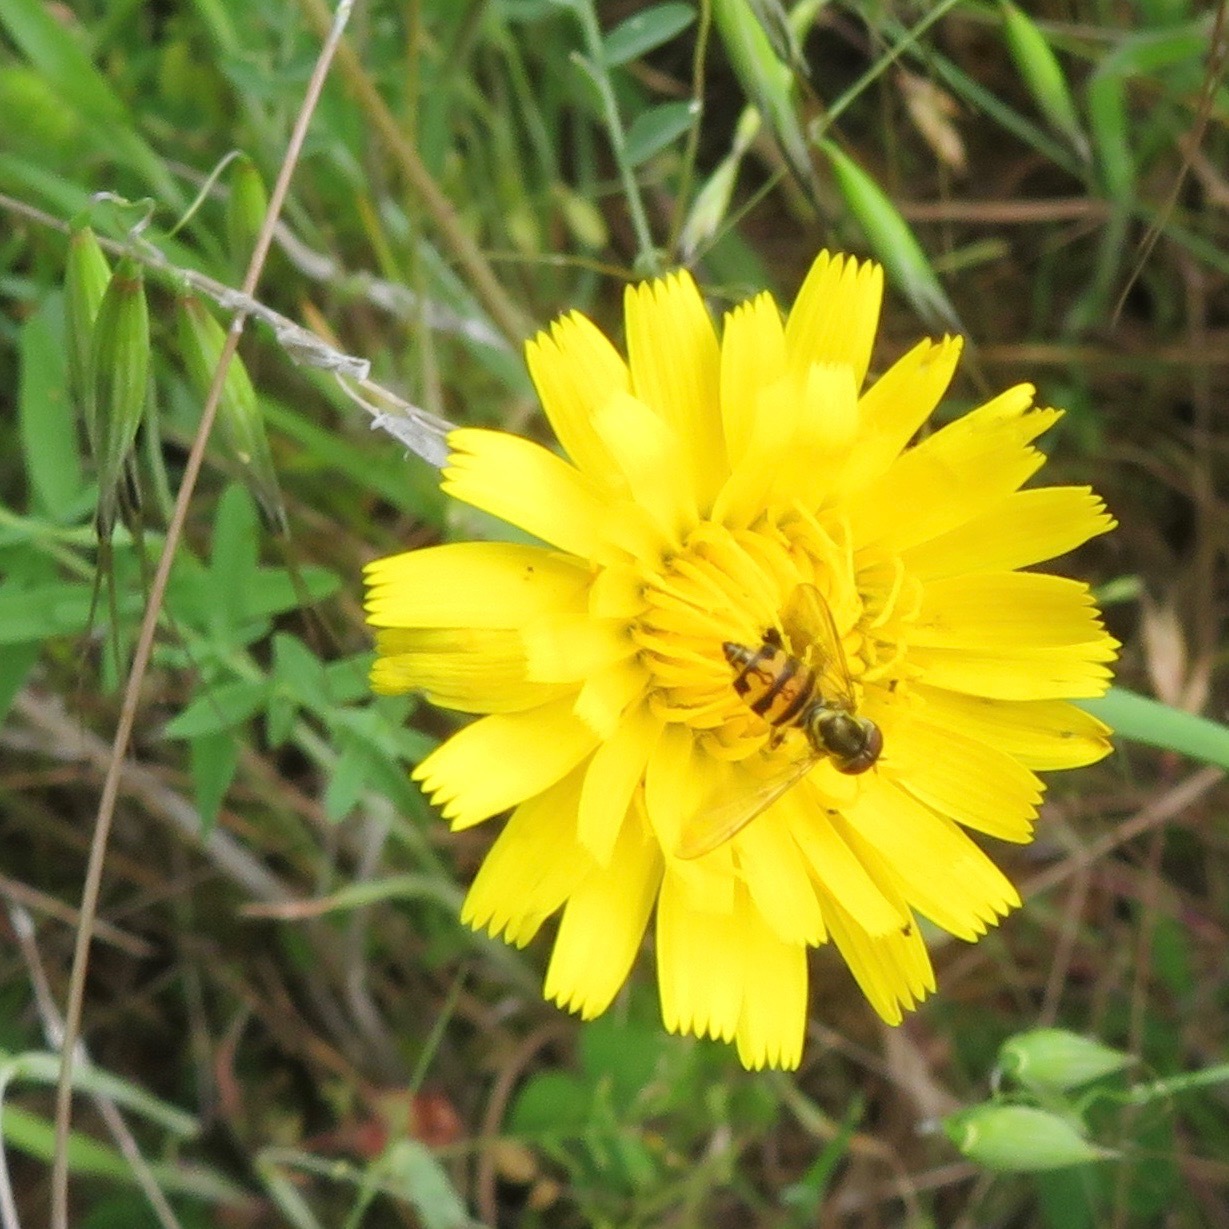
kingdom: Plantae
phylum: Tracheophyta
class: Magnoliopsida
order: Asterales
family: Asteraceae
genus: Hypochaeris
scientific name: Hypochaeris radicata
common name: Flatweed
